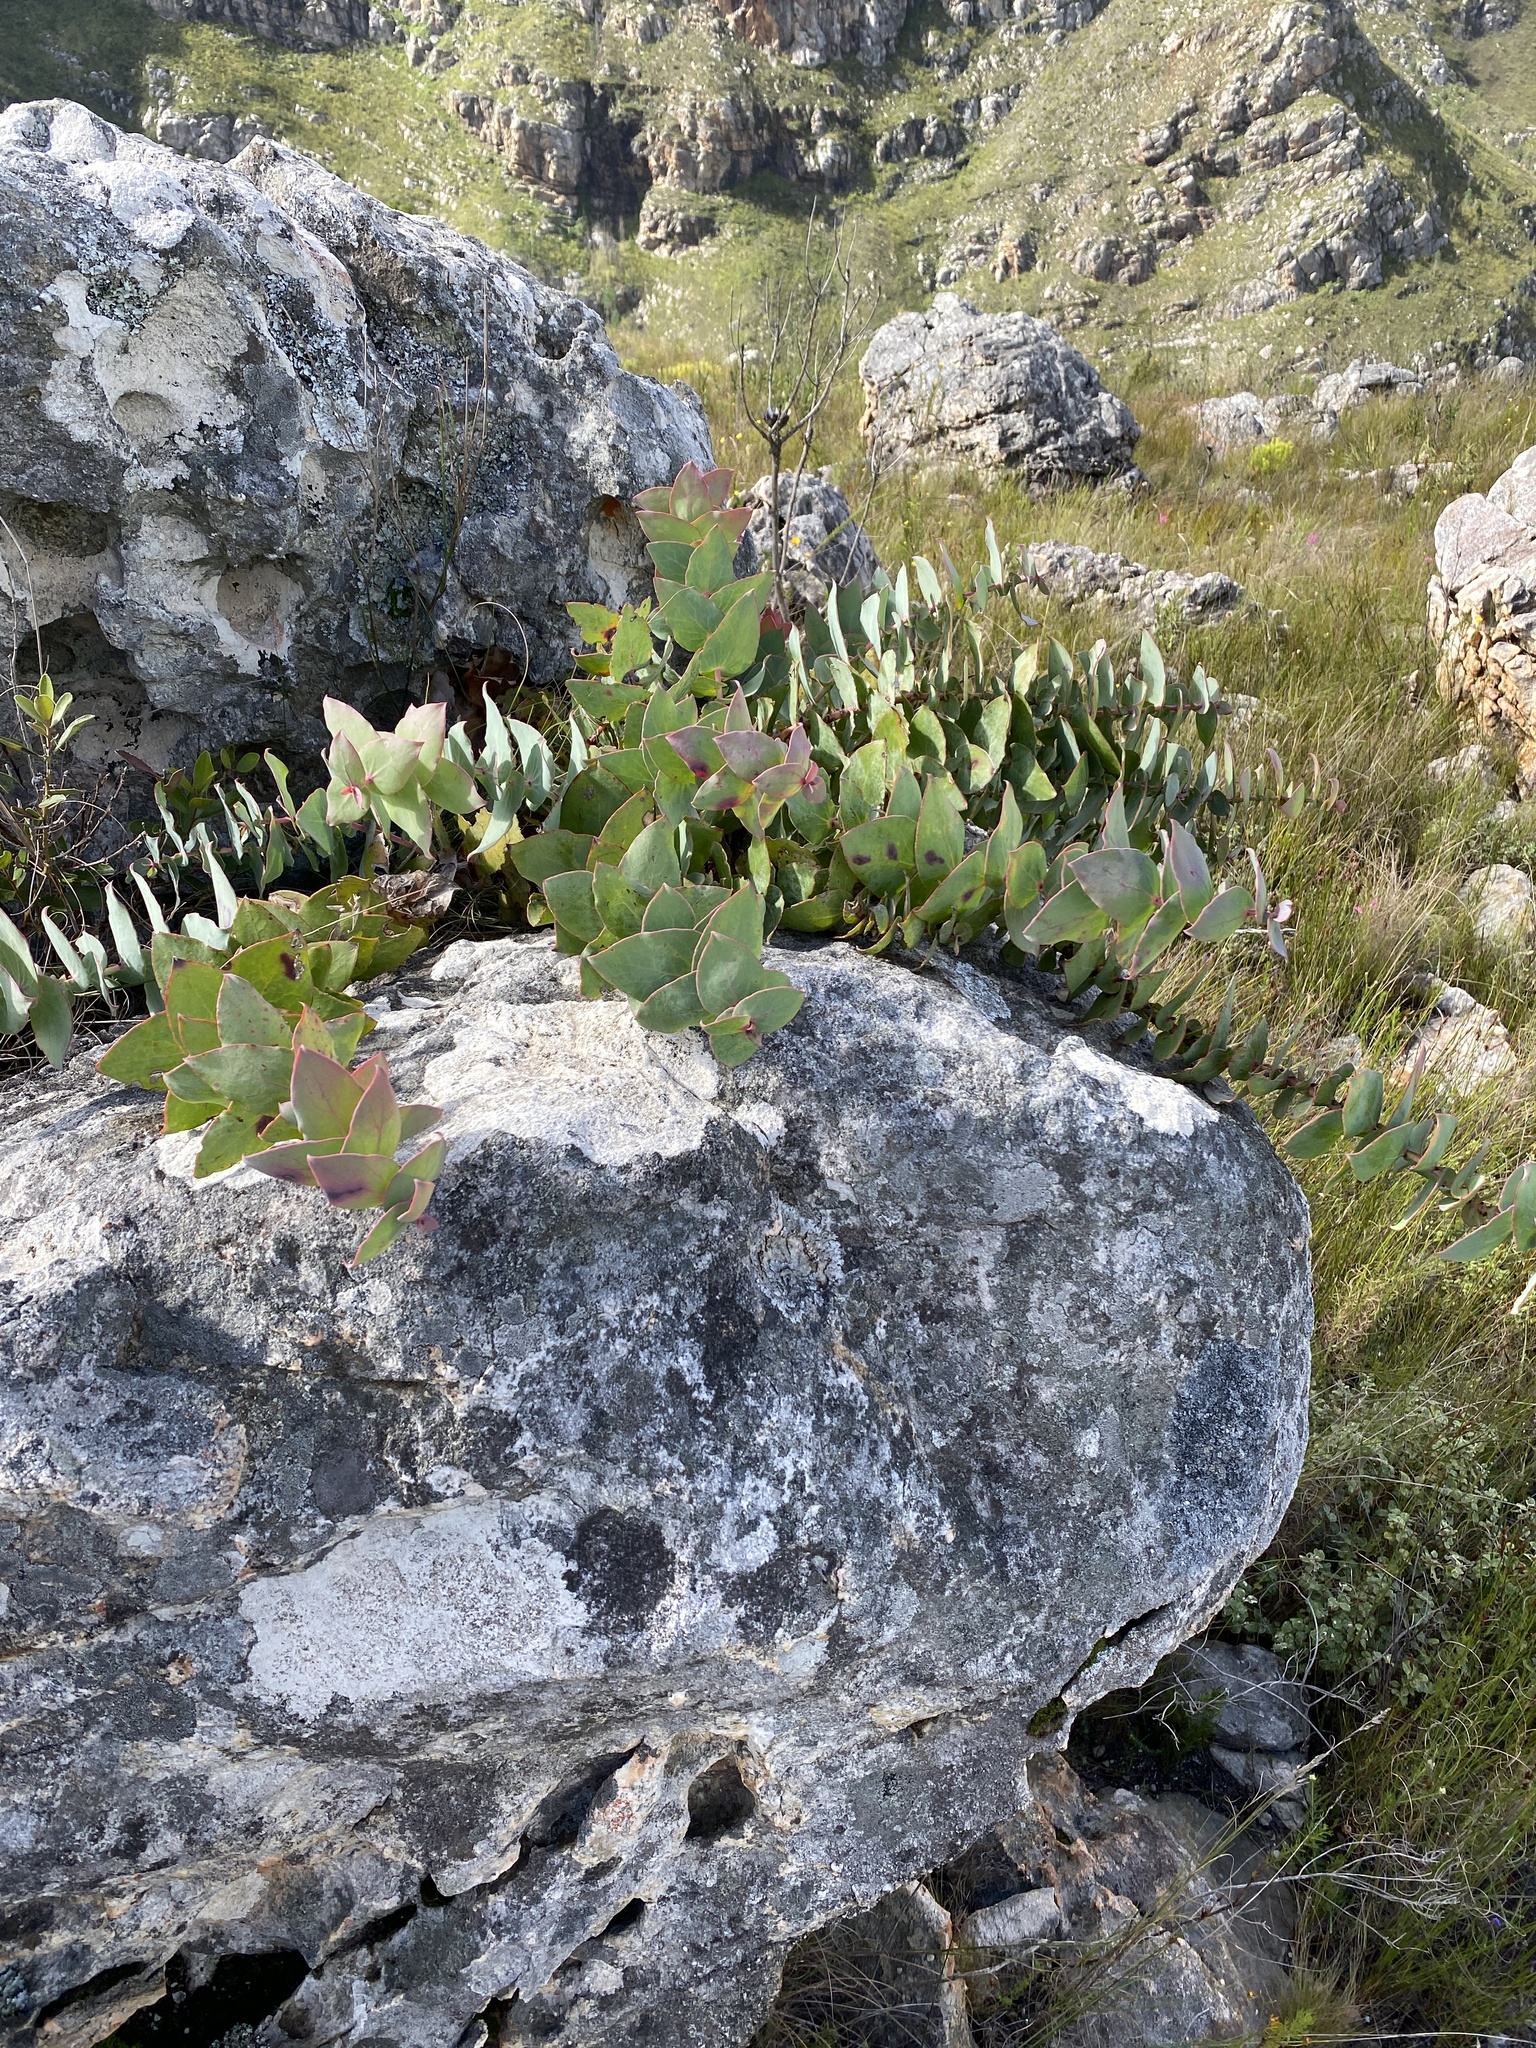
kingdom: Plantae
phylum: Tracheophyta
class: Magnoliopsida
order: Proteales
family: Proteaceae
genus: Protea
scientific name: Protea amplexicaulis
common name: Clasping-leaf sugarbush
